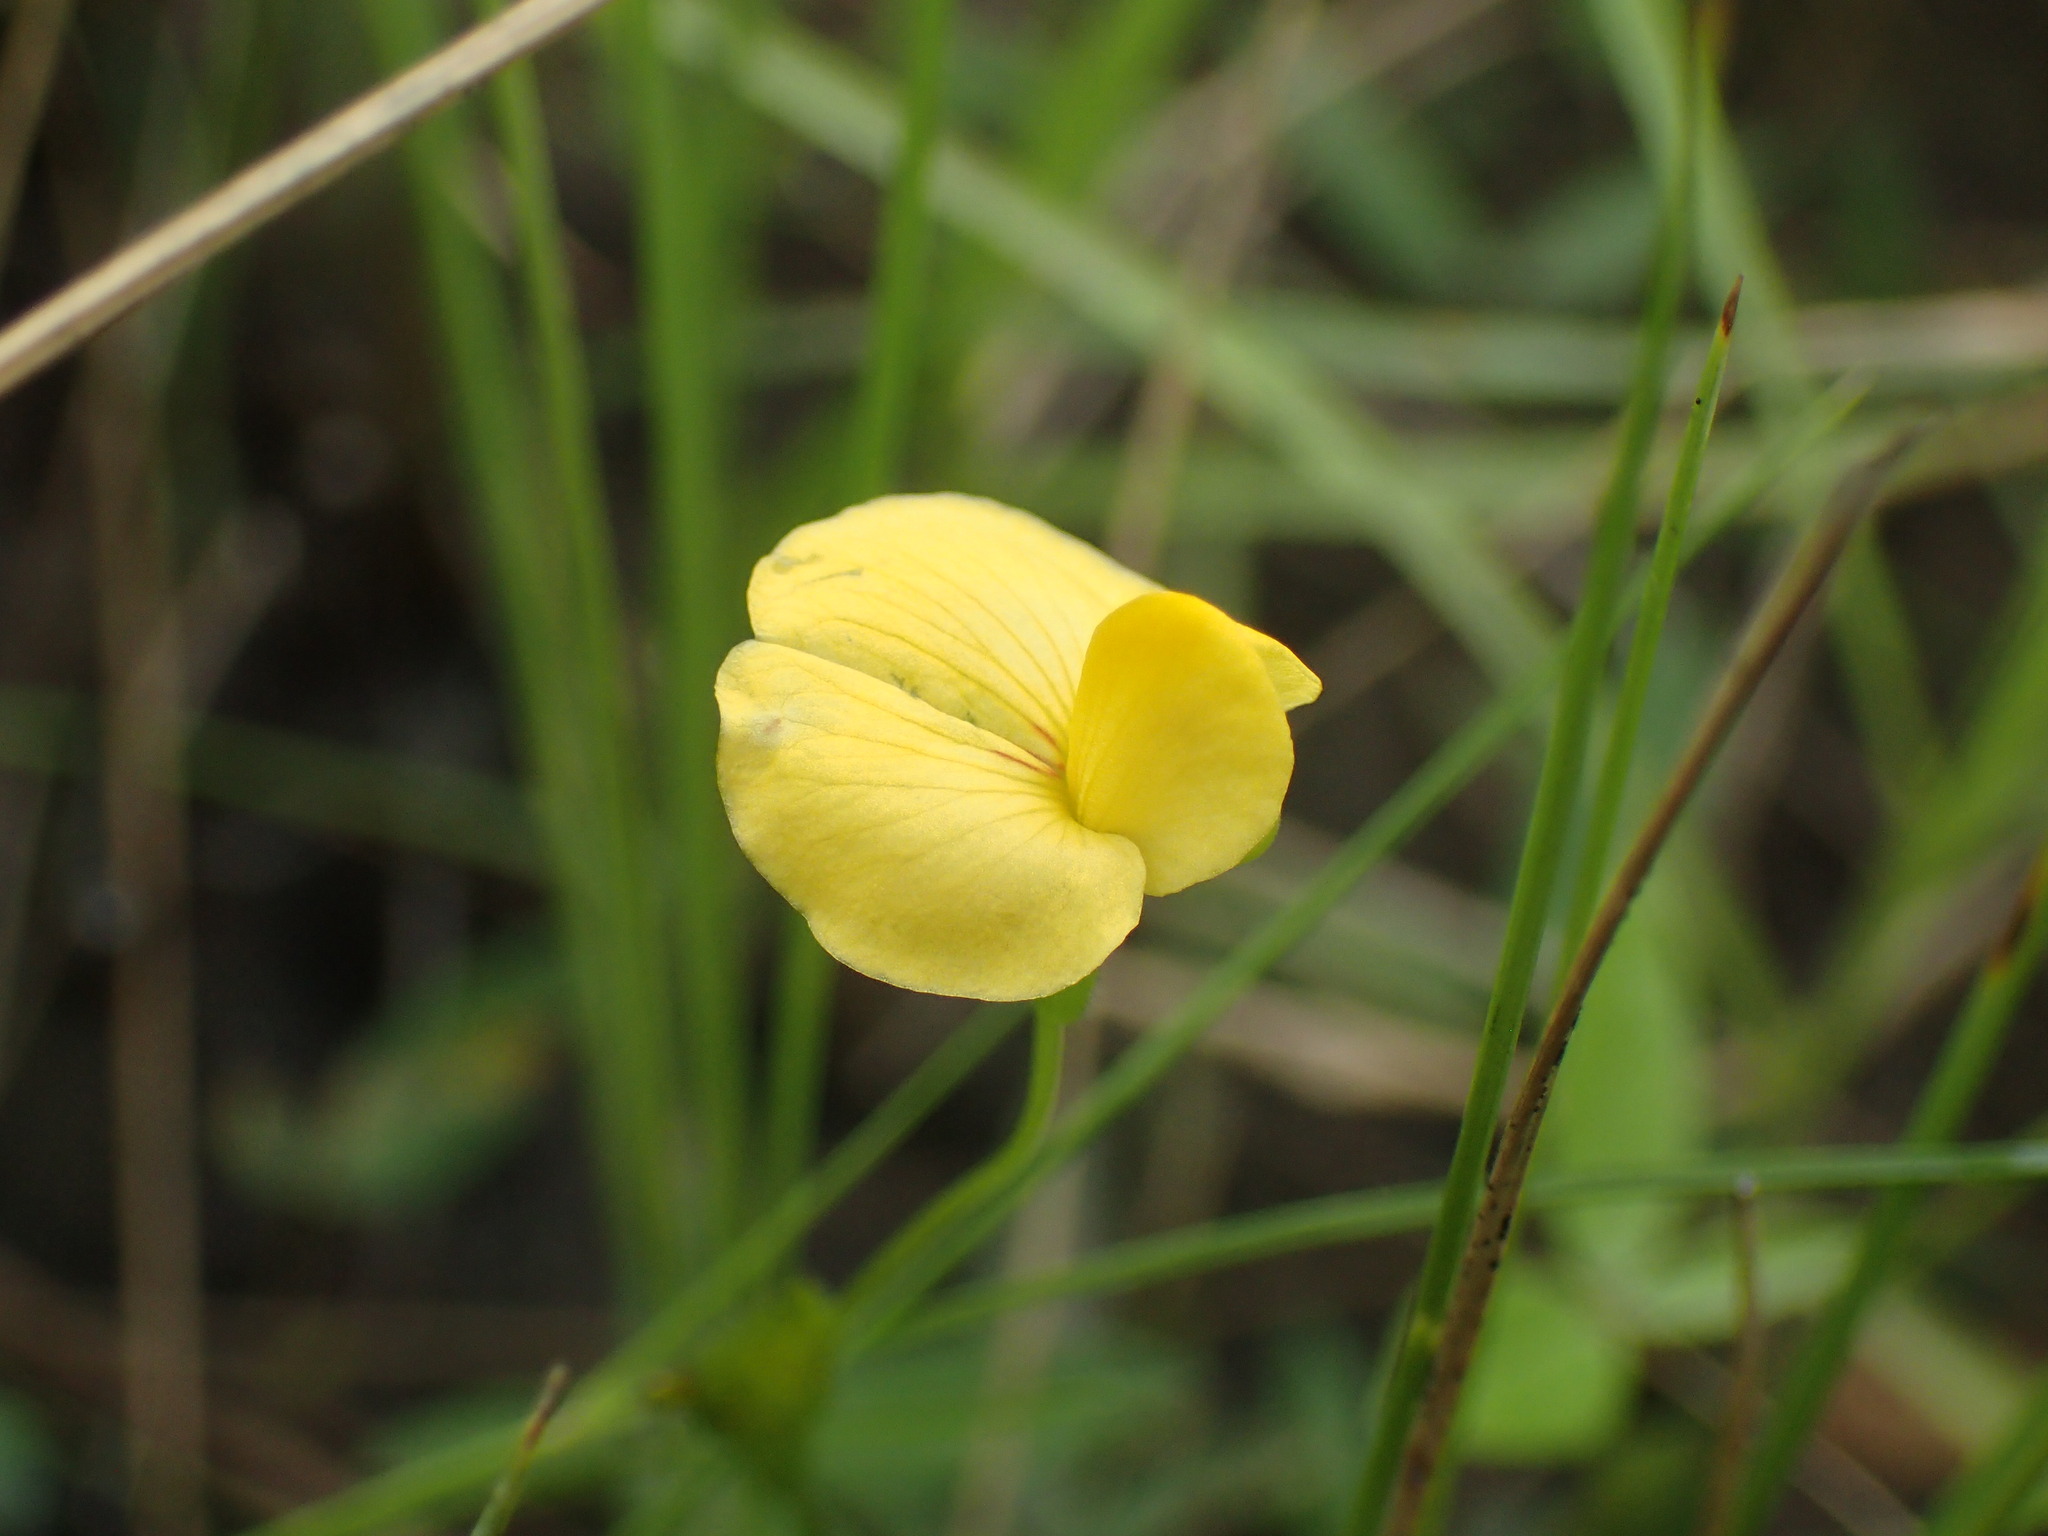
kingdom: Plantae
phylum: Tracheophyta
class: Magnoliopsida
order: Fabales
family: Fabaceae
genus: Zornia
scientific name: Zornia milneana
